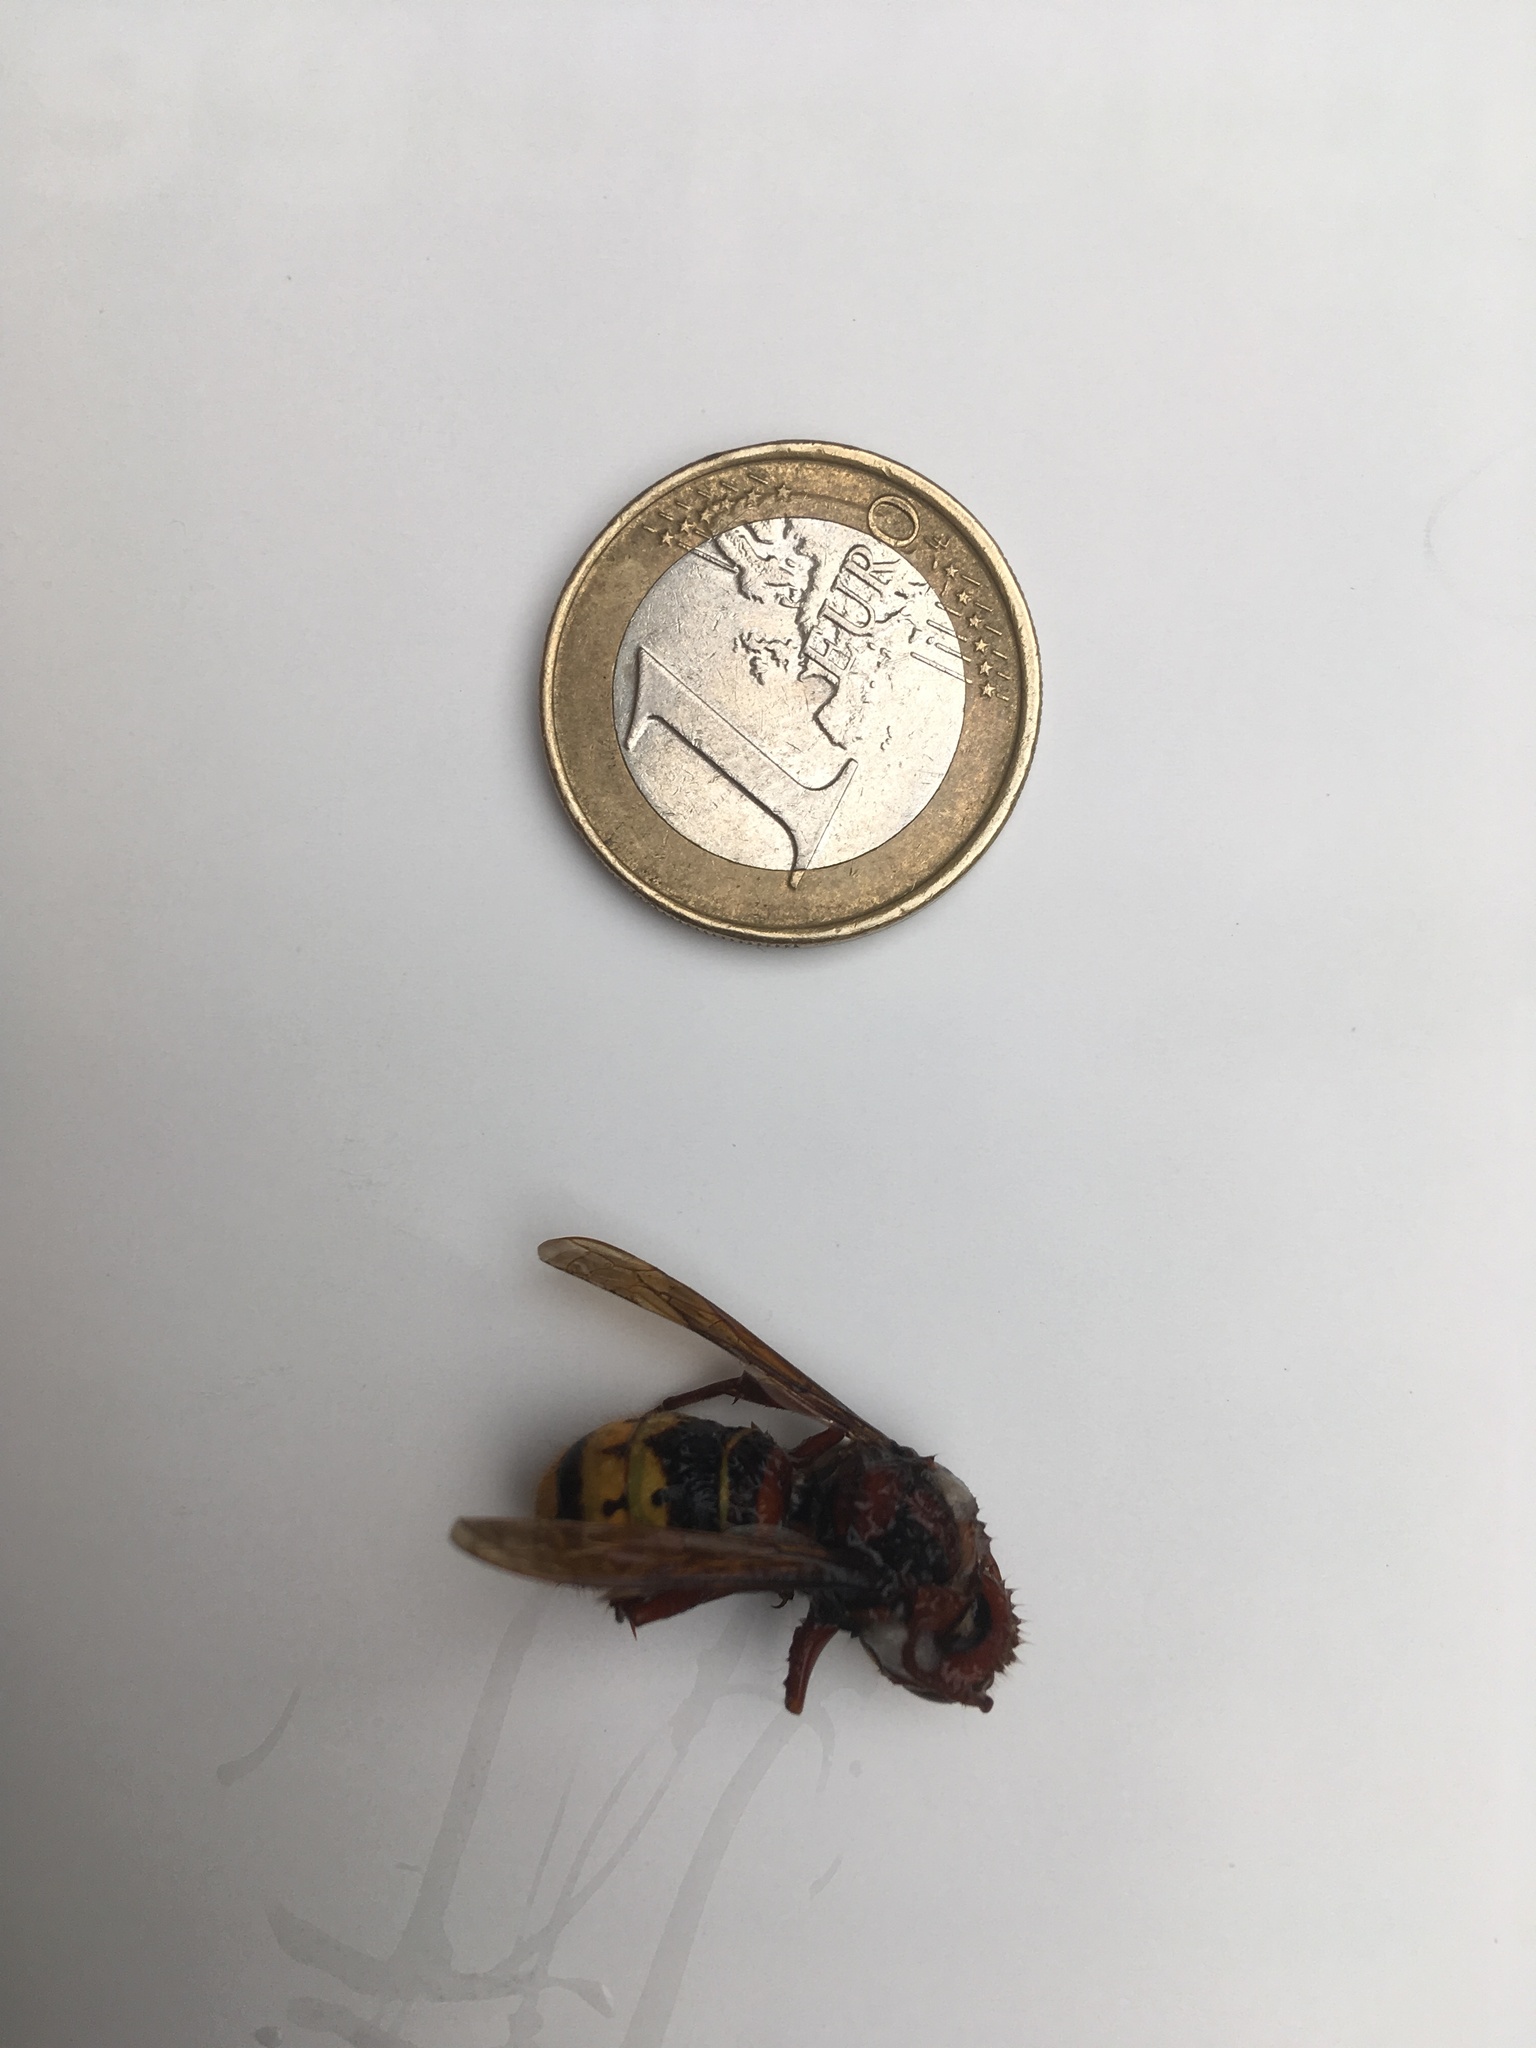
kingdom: Animalia
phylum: Arthropoda
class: Insecta
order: Hymenoptera
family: Vespidae
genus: Vespa
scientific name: Vespa crabro
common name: Hornet
